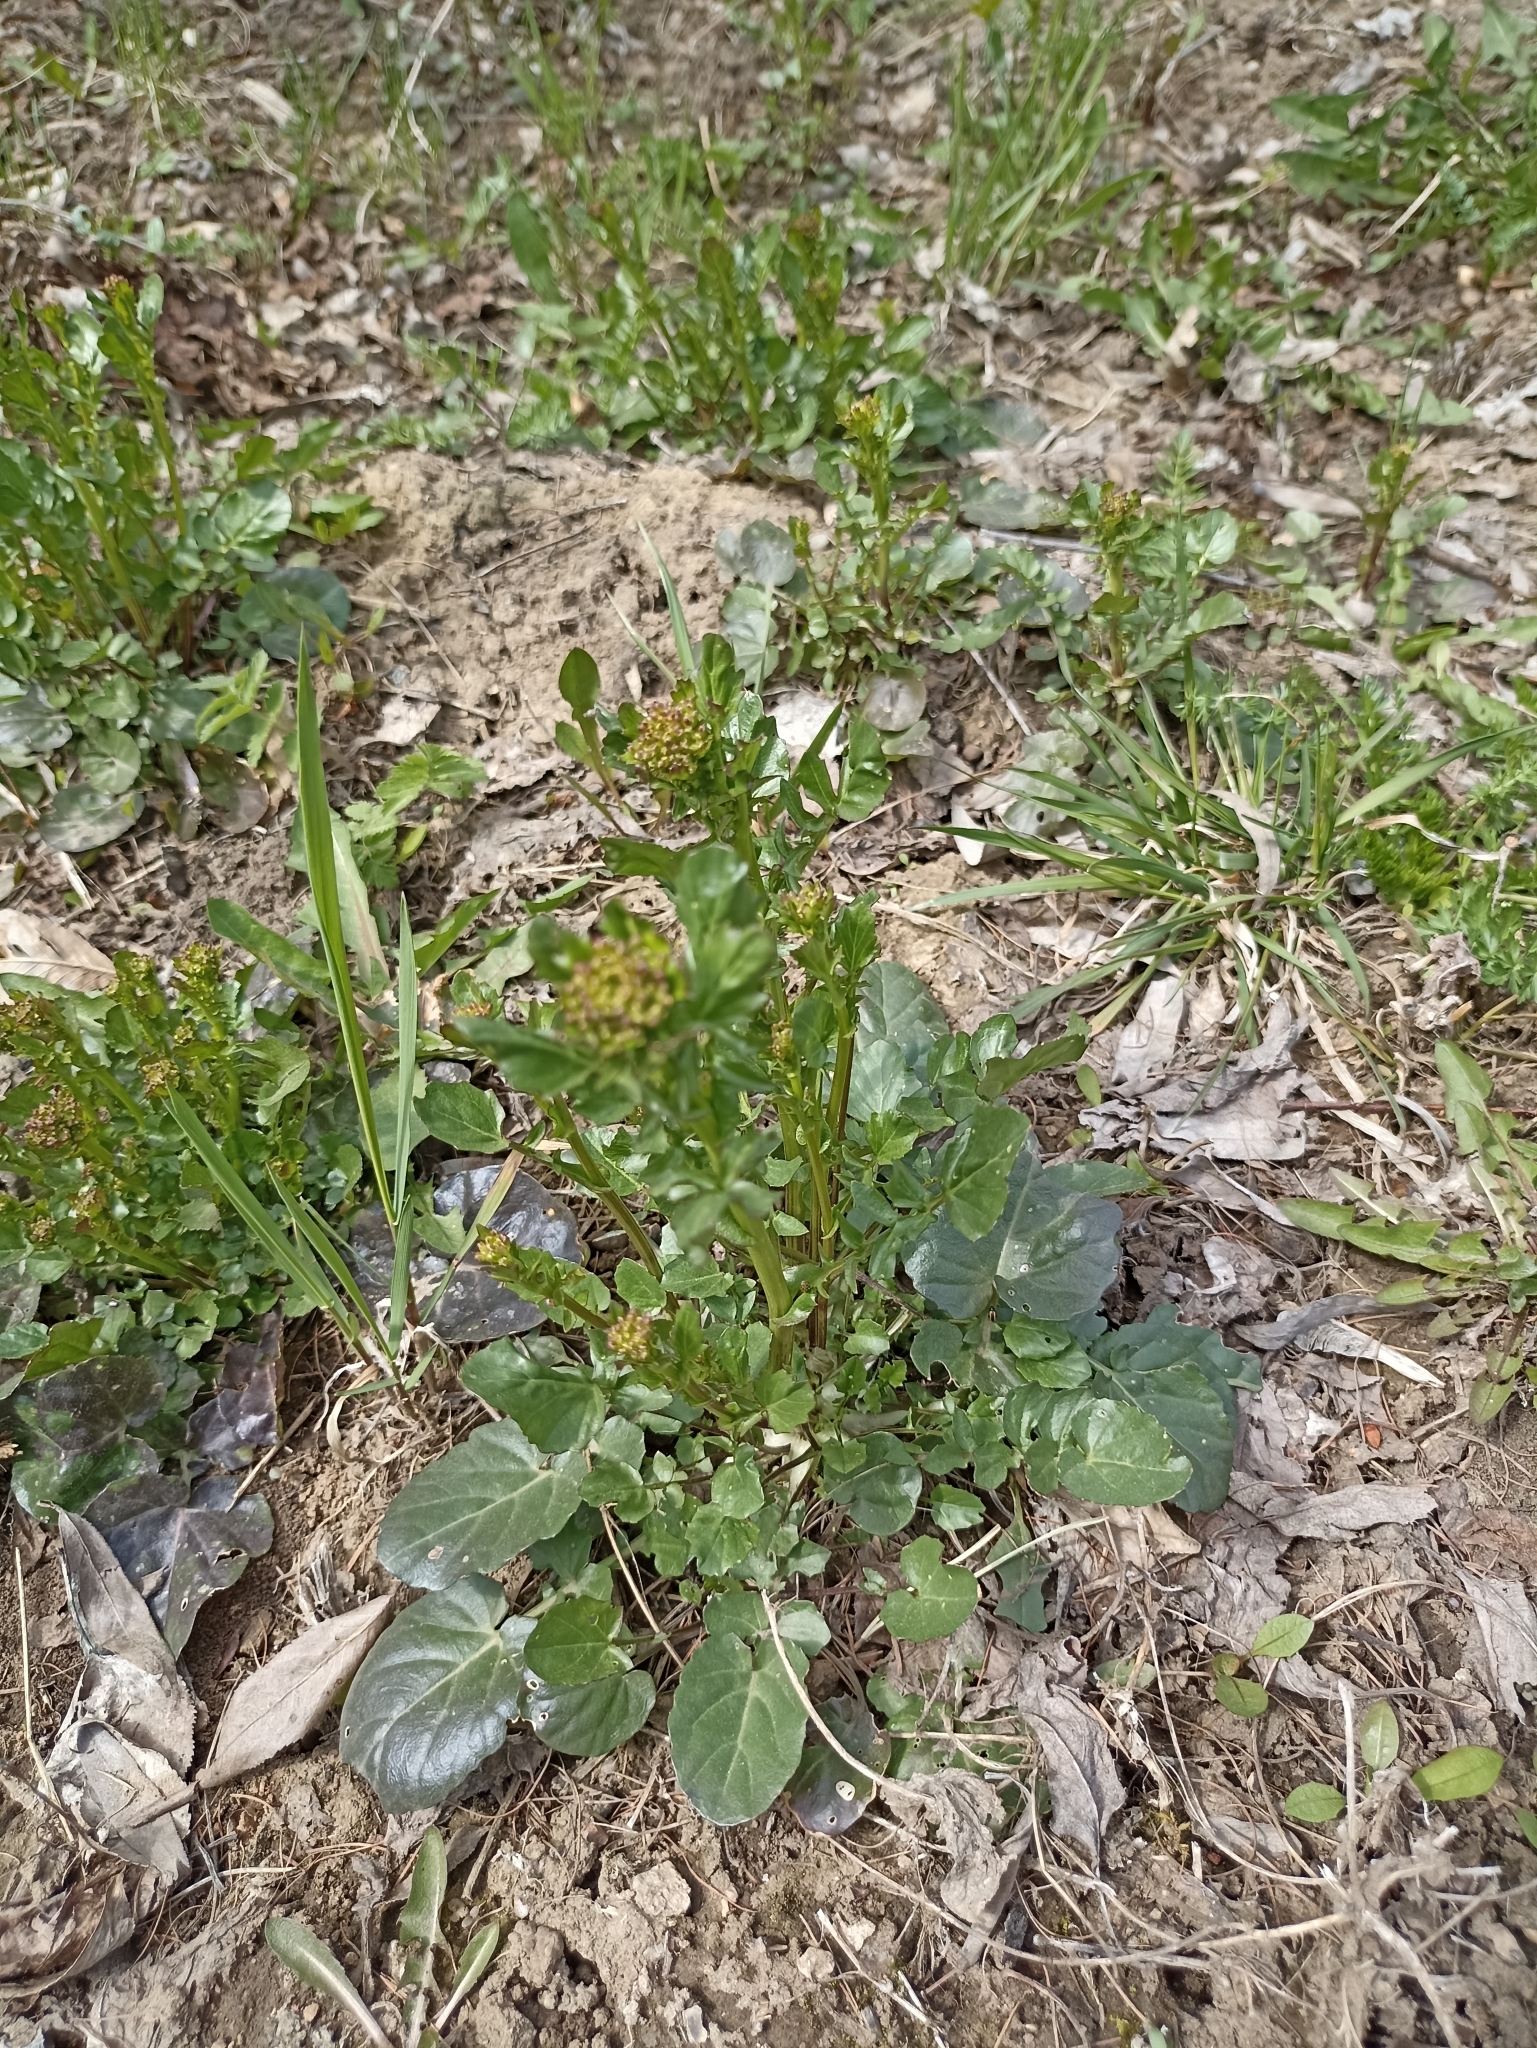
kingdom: Plantae
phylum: Tracheophyta
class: Magnoliopsida
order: Brassicales
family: Brassicaceae
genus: Barbarea
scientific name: Barbarea vulgaris
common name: Cressy-greens
